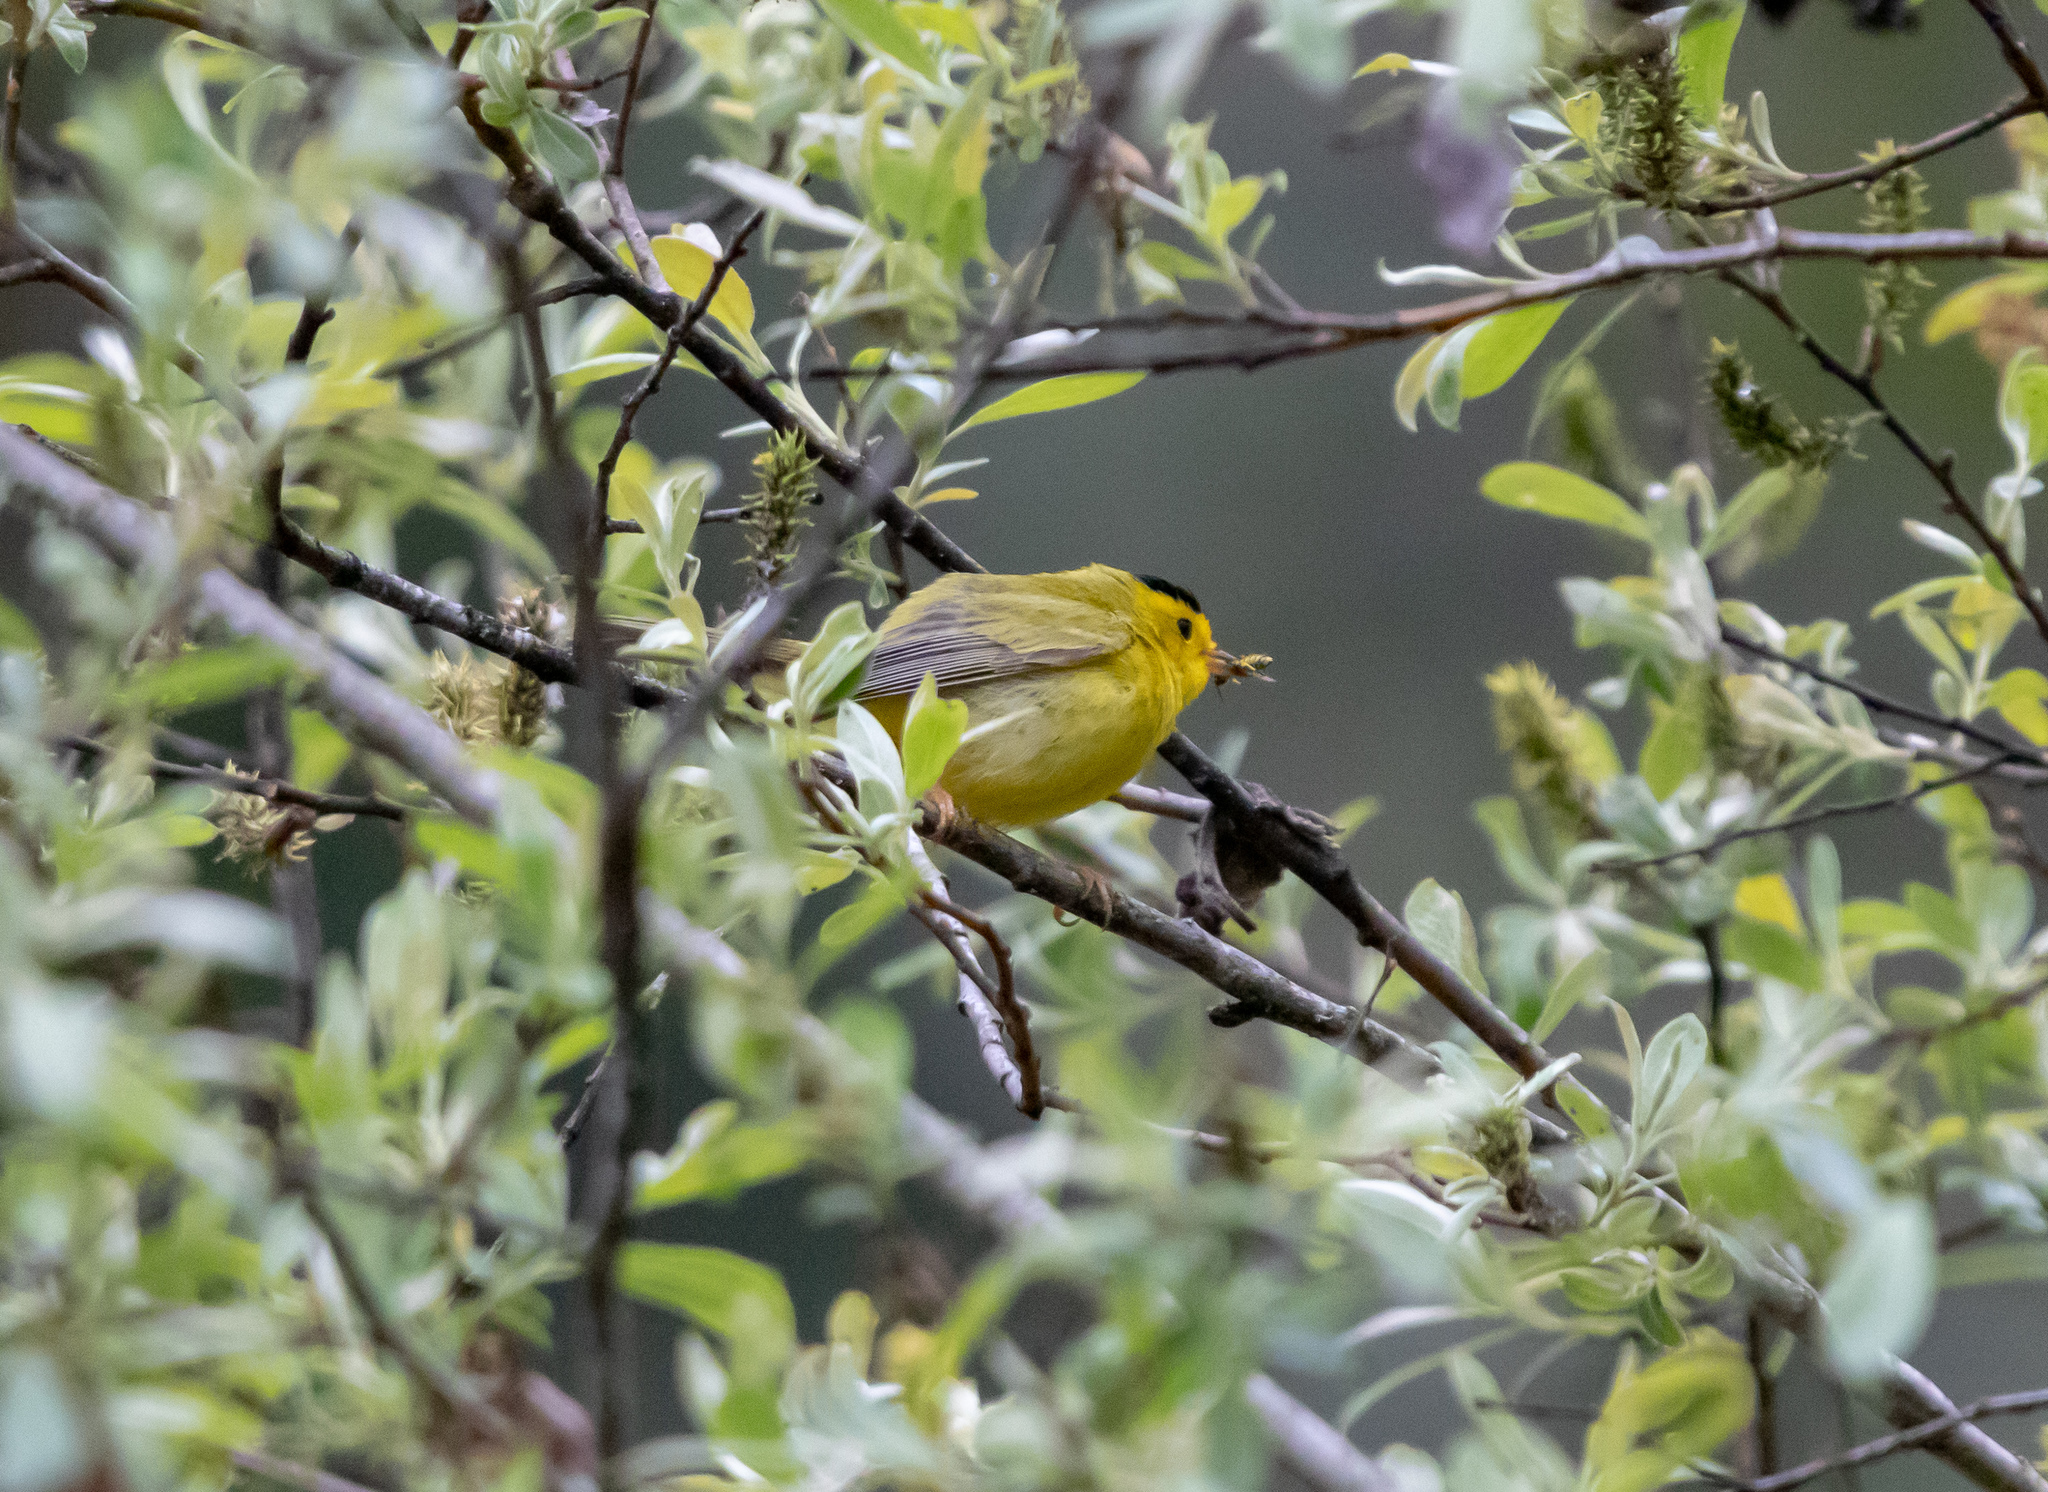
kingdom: Animalia
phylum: Chordata
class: Aves
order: Passeriformes
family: Parulidae
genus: Cardellina
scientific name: Cardellina pusilla
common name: Wilson's warbler
